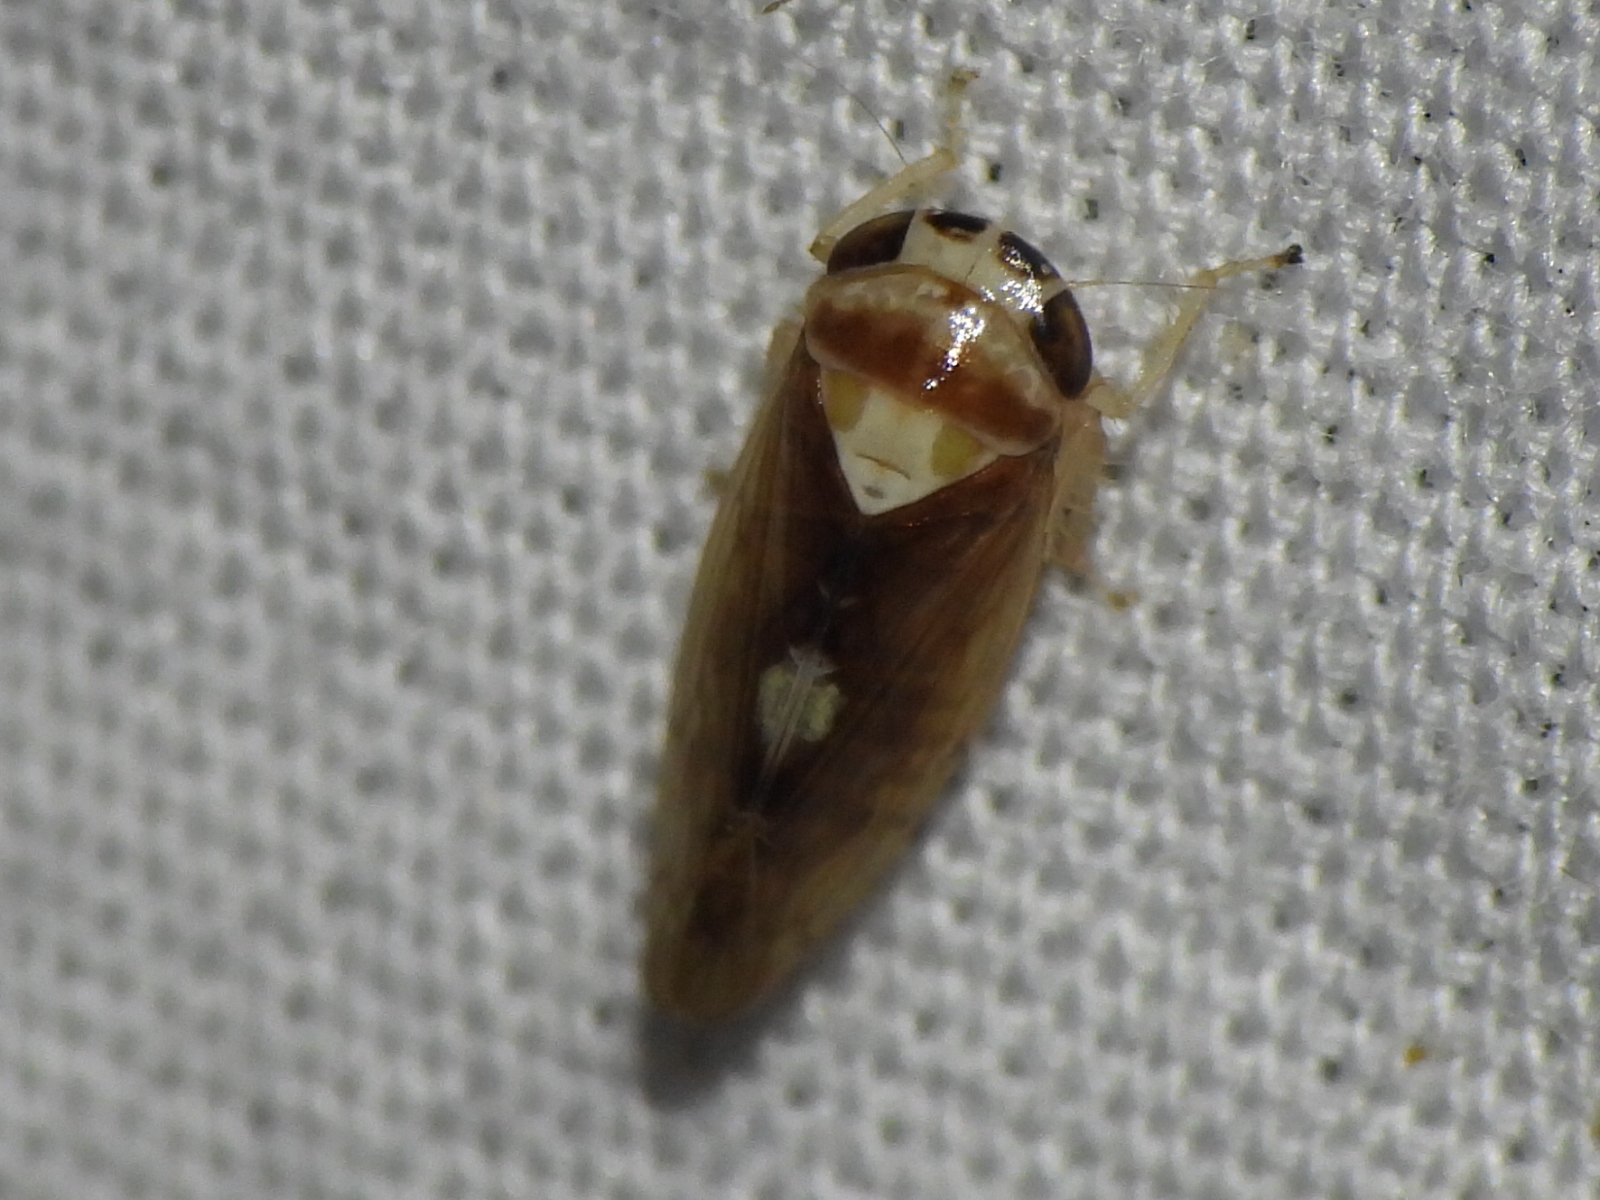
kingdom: Animalia
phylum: Arthropoda
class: Insecta
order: Hemiptera
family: Cicadellidae
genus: Eutettix
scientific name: Eutettix pictus
